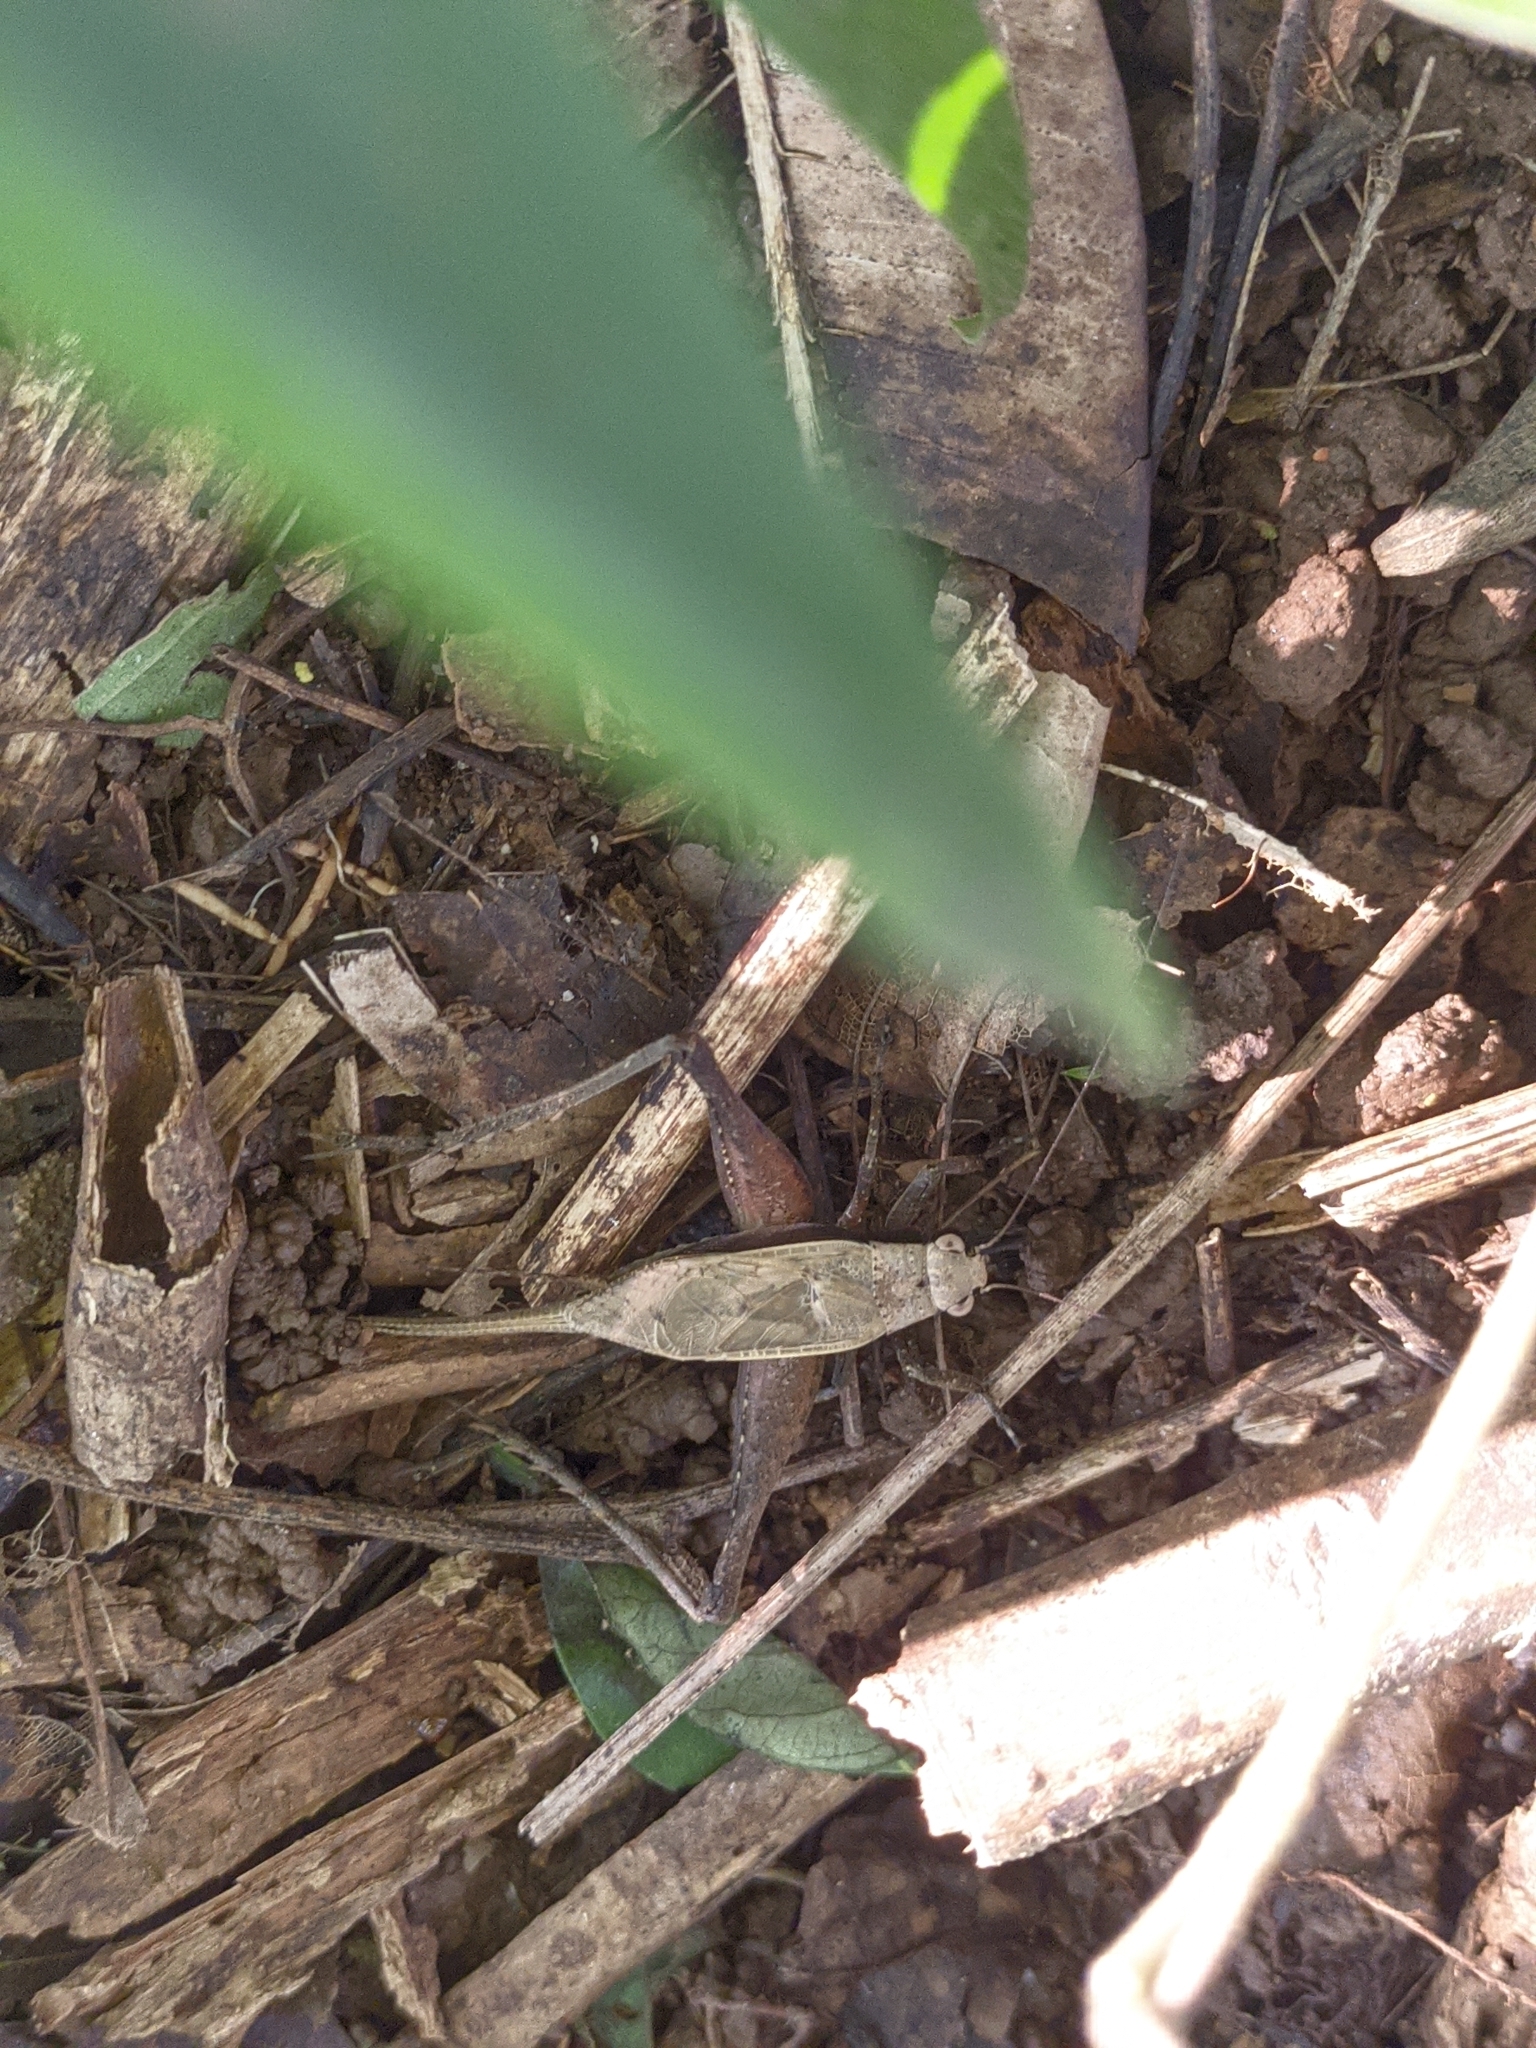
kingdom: Animalia
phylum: Arthropoda
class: Insecta
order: Orthoptera
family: Gryllidae
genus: Eneoptera
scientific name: Eneoptera surinamensis
